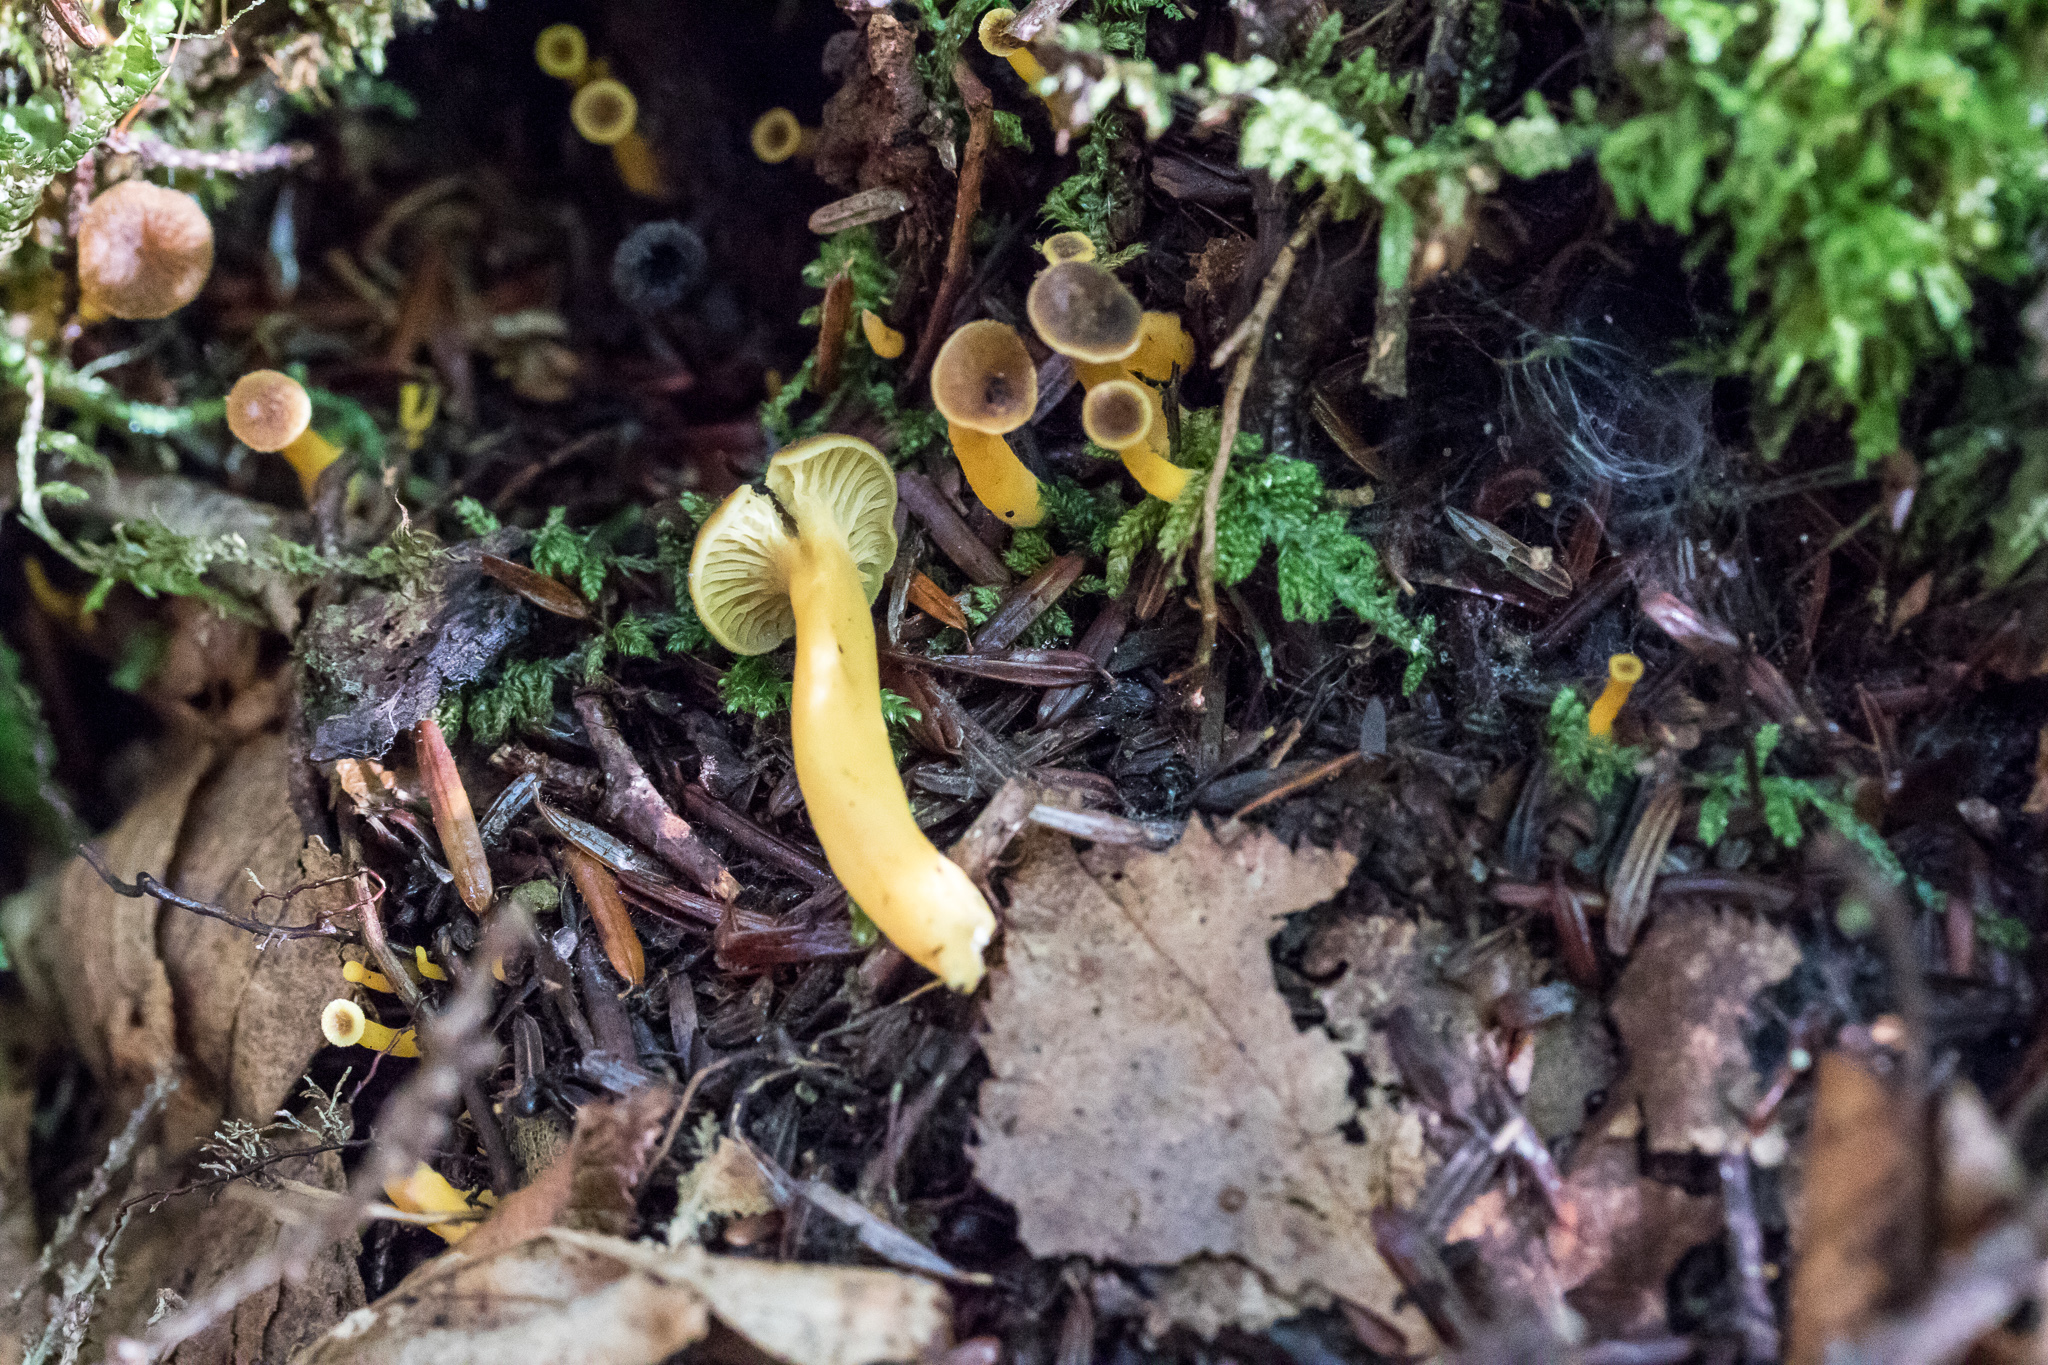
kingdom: Fungi
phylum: Basidiomycota
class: Agaricomycetes
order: Cantharellales
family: Hydnaceae
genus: Craterellus
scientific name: Craterellus tubaeformis
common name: Yellowfoot
